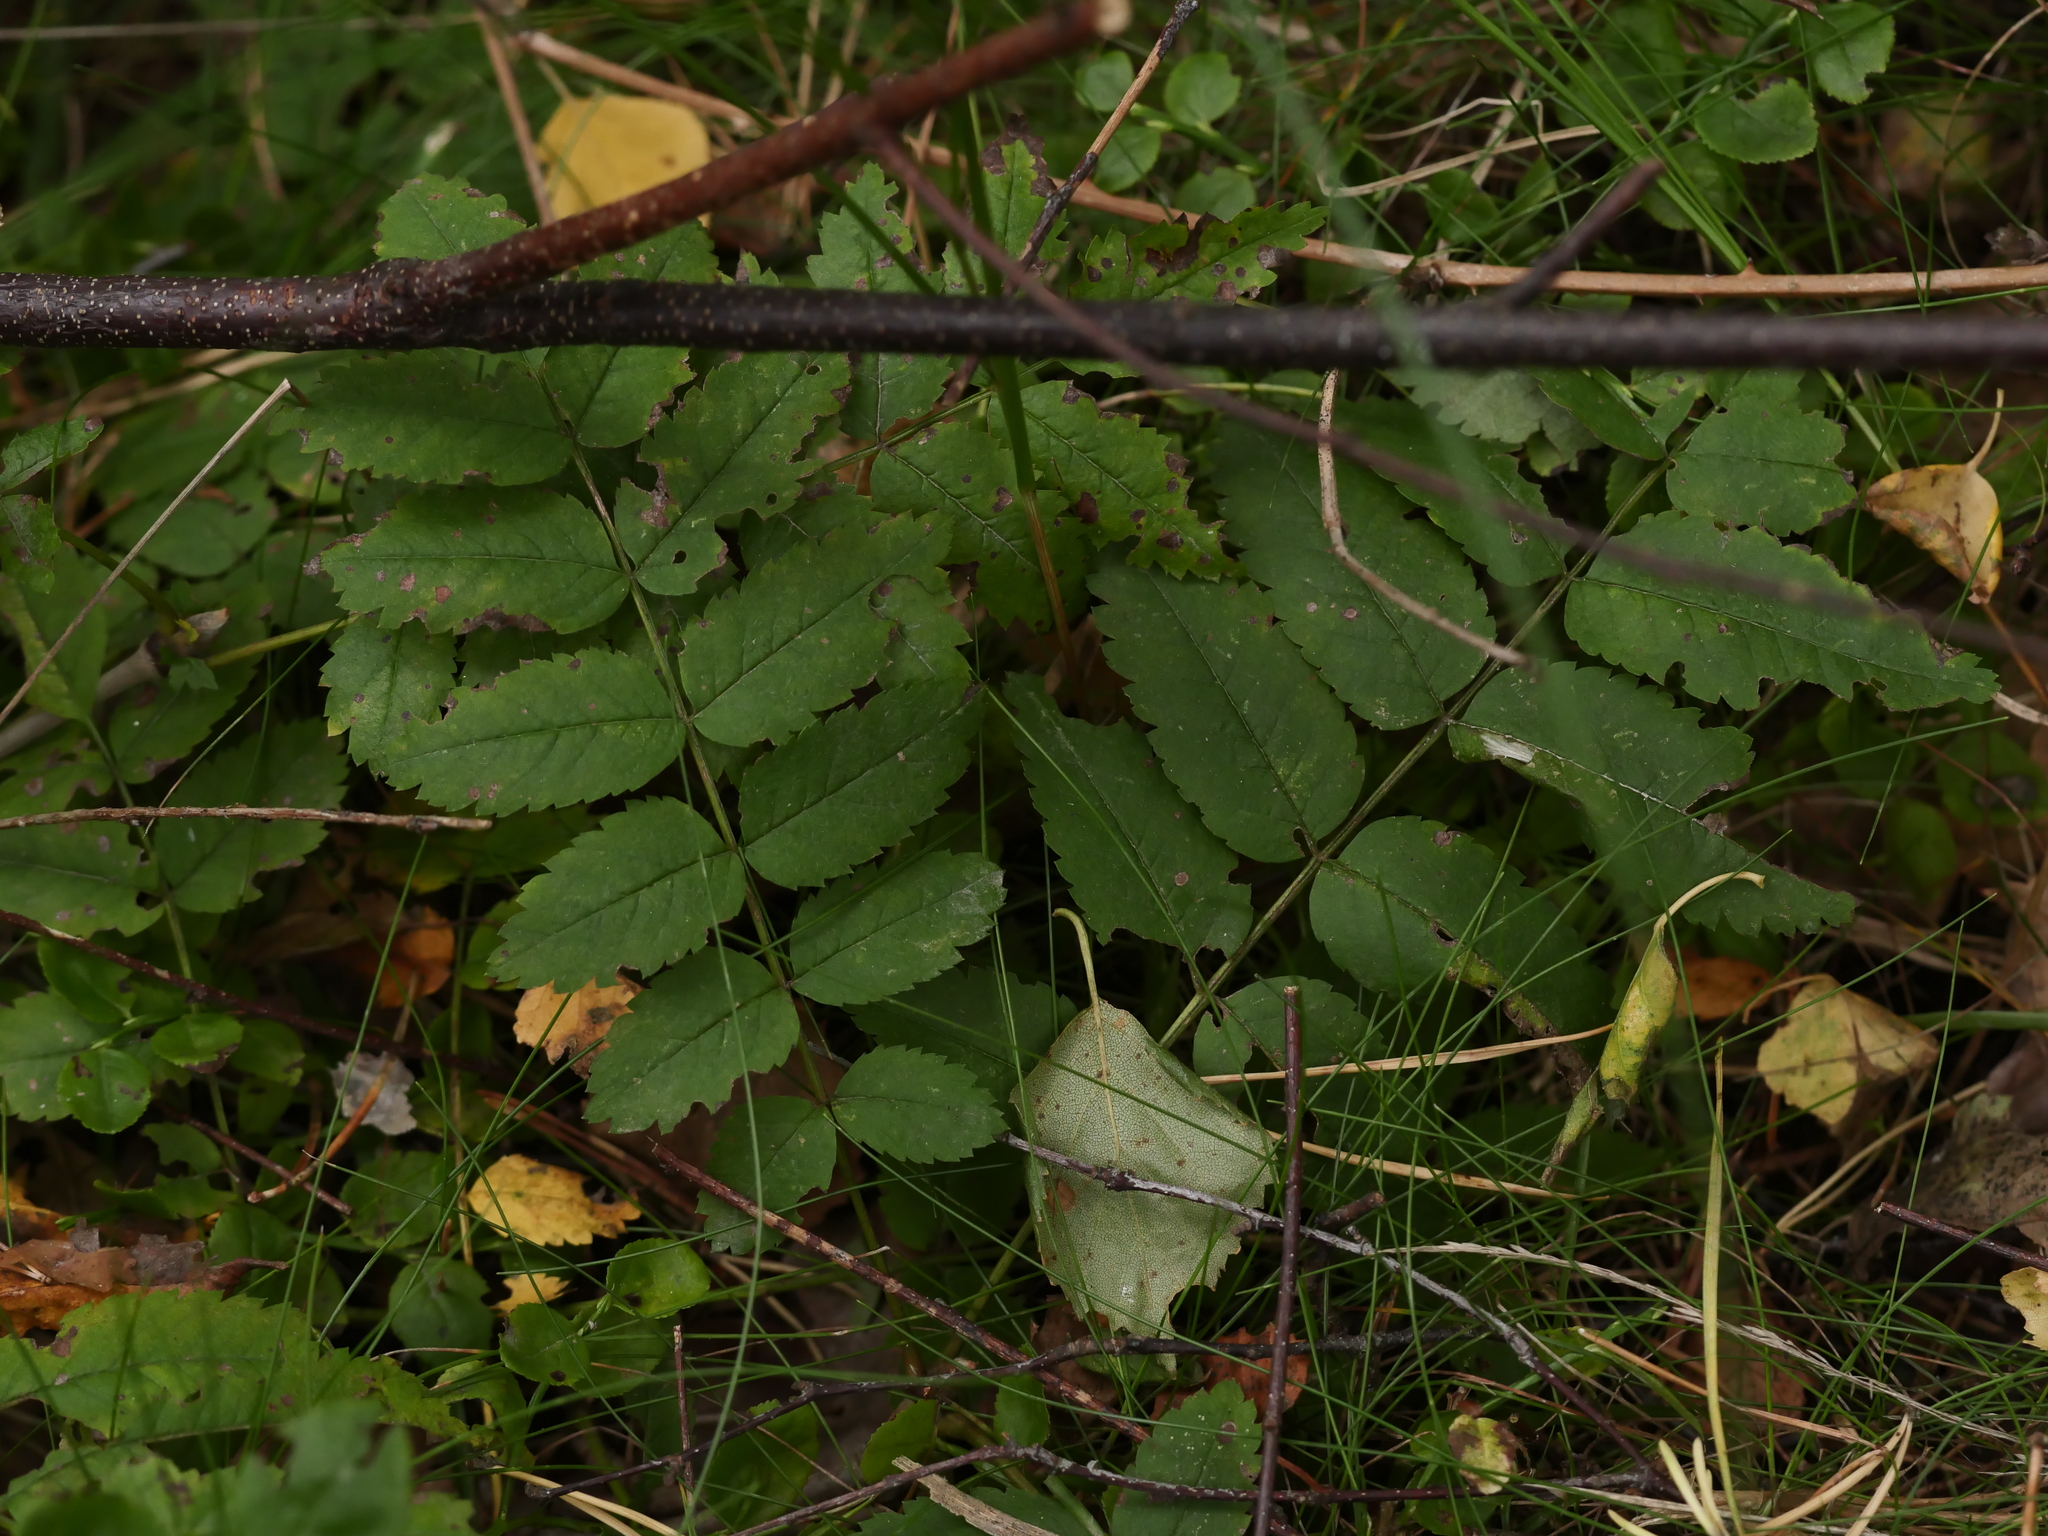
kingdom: Plantae
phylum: Tracheophyta
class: Magnoliopsida
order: Rosales
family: Rosaceae
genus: Sorbus
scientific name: Sorbus aucuparia
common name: Rowan
